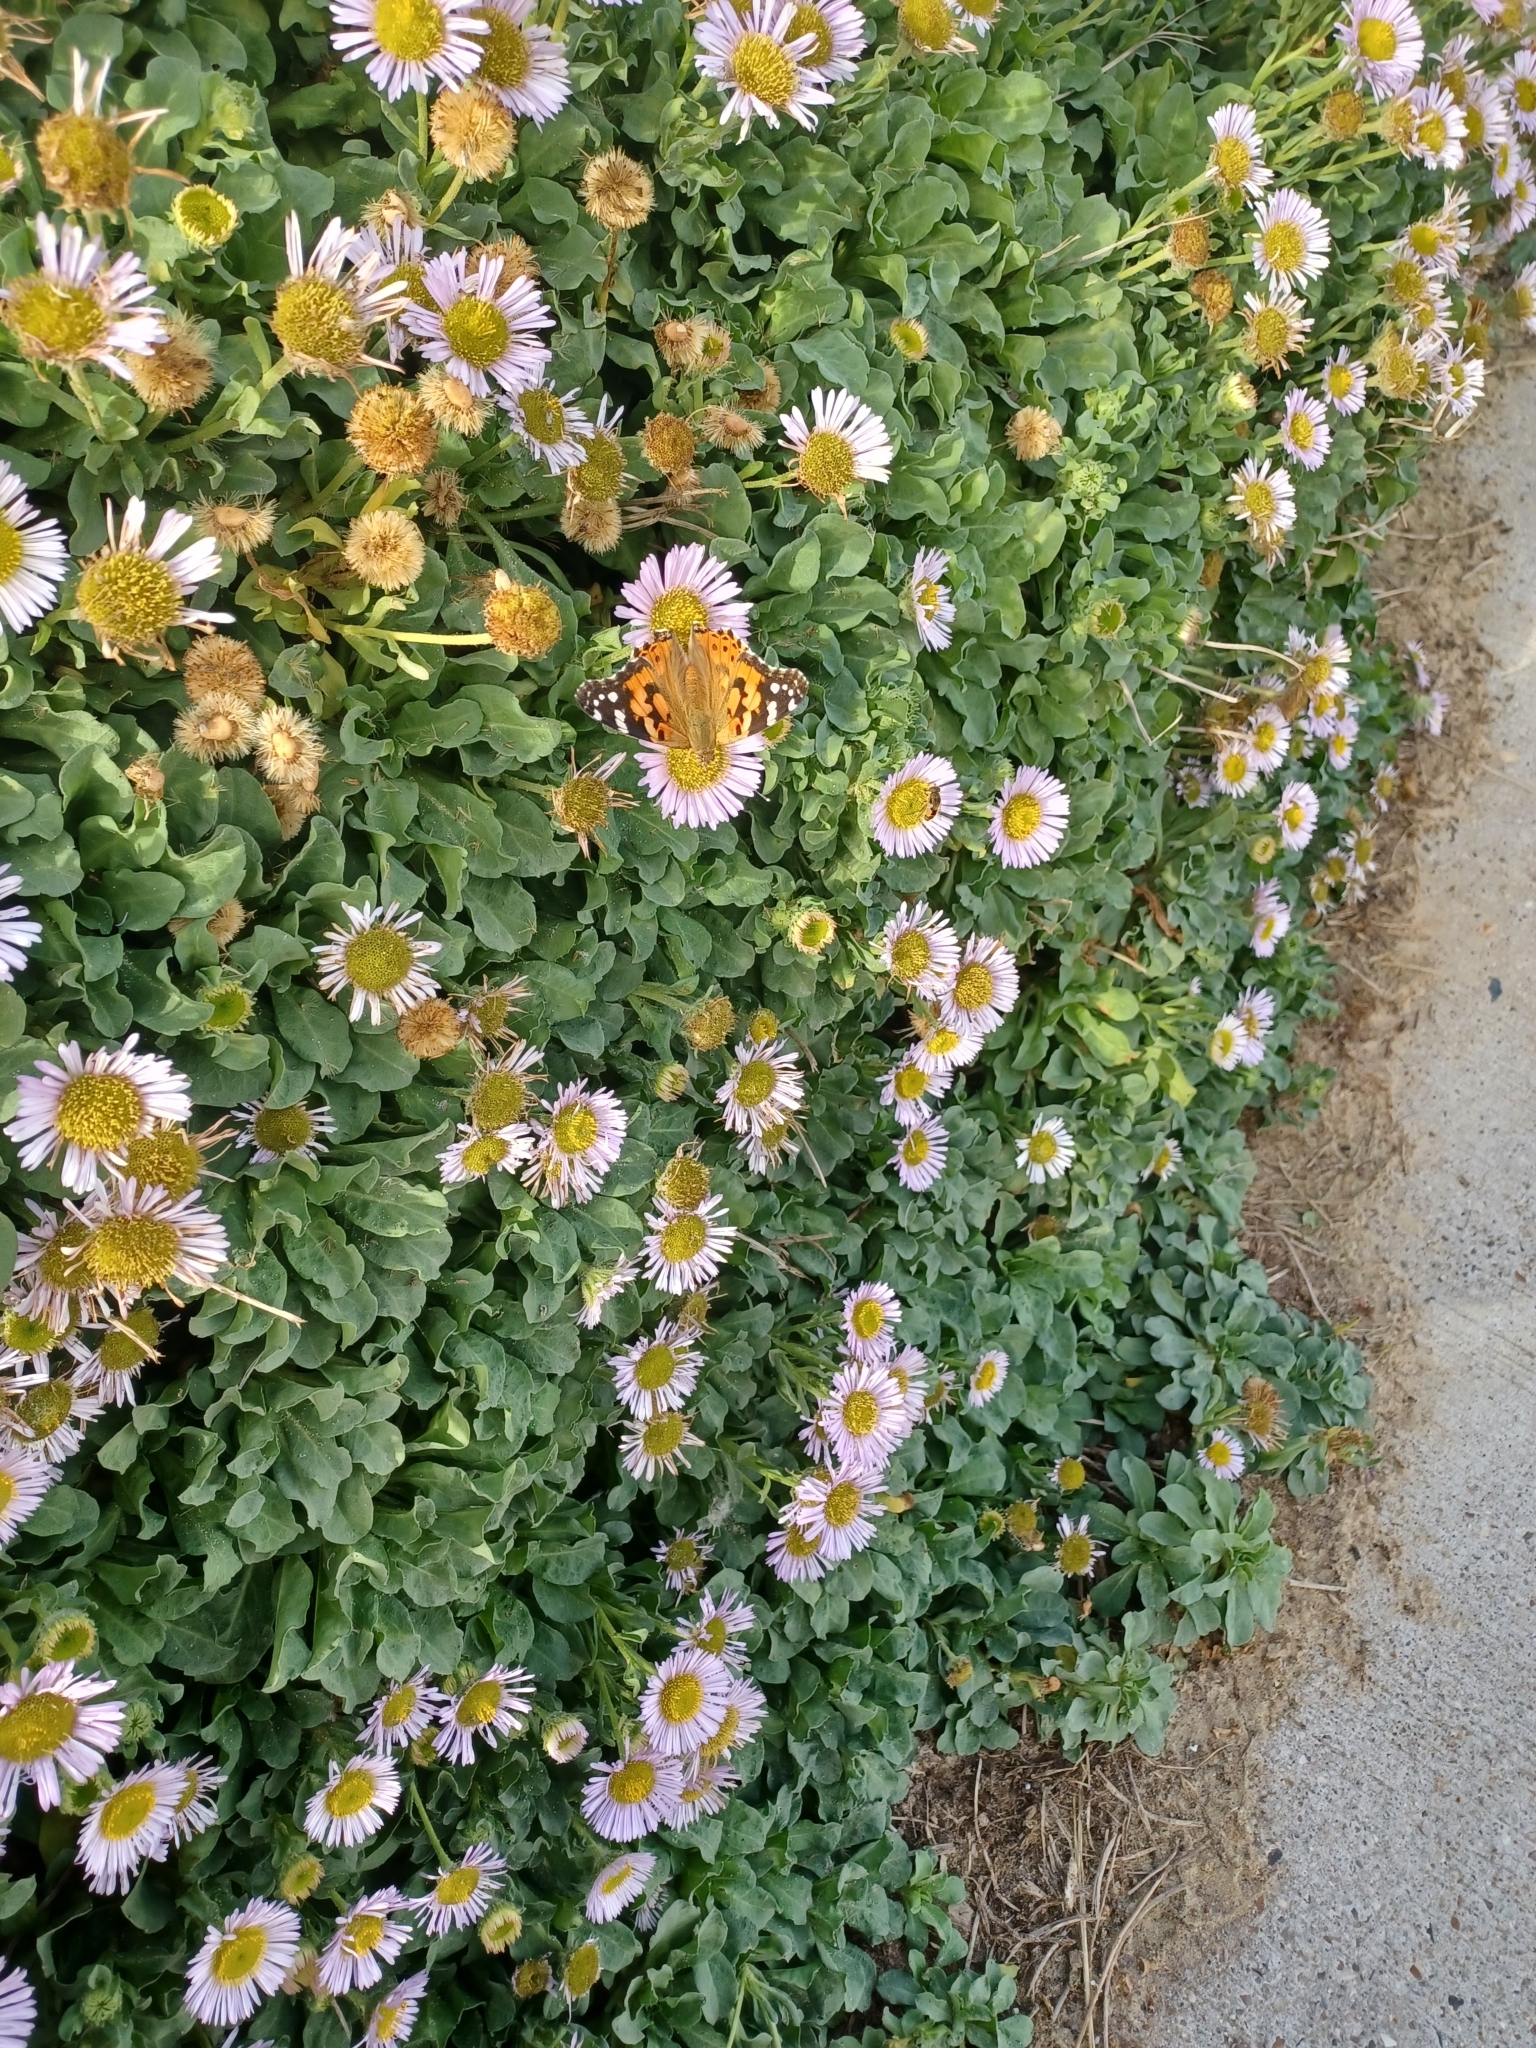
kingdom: Animalia
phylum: Arthropoda
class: Insecta
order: Lepidoptera
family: Nymphalidae
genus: Vanessa
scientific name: Vanessa cardui
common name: Painted lady
